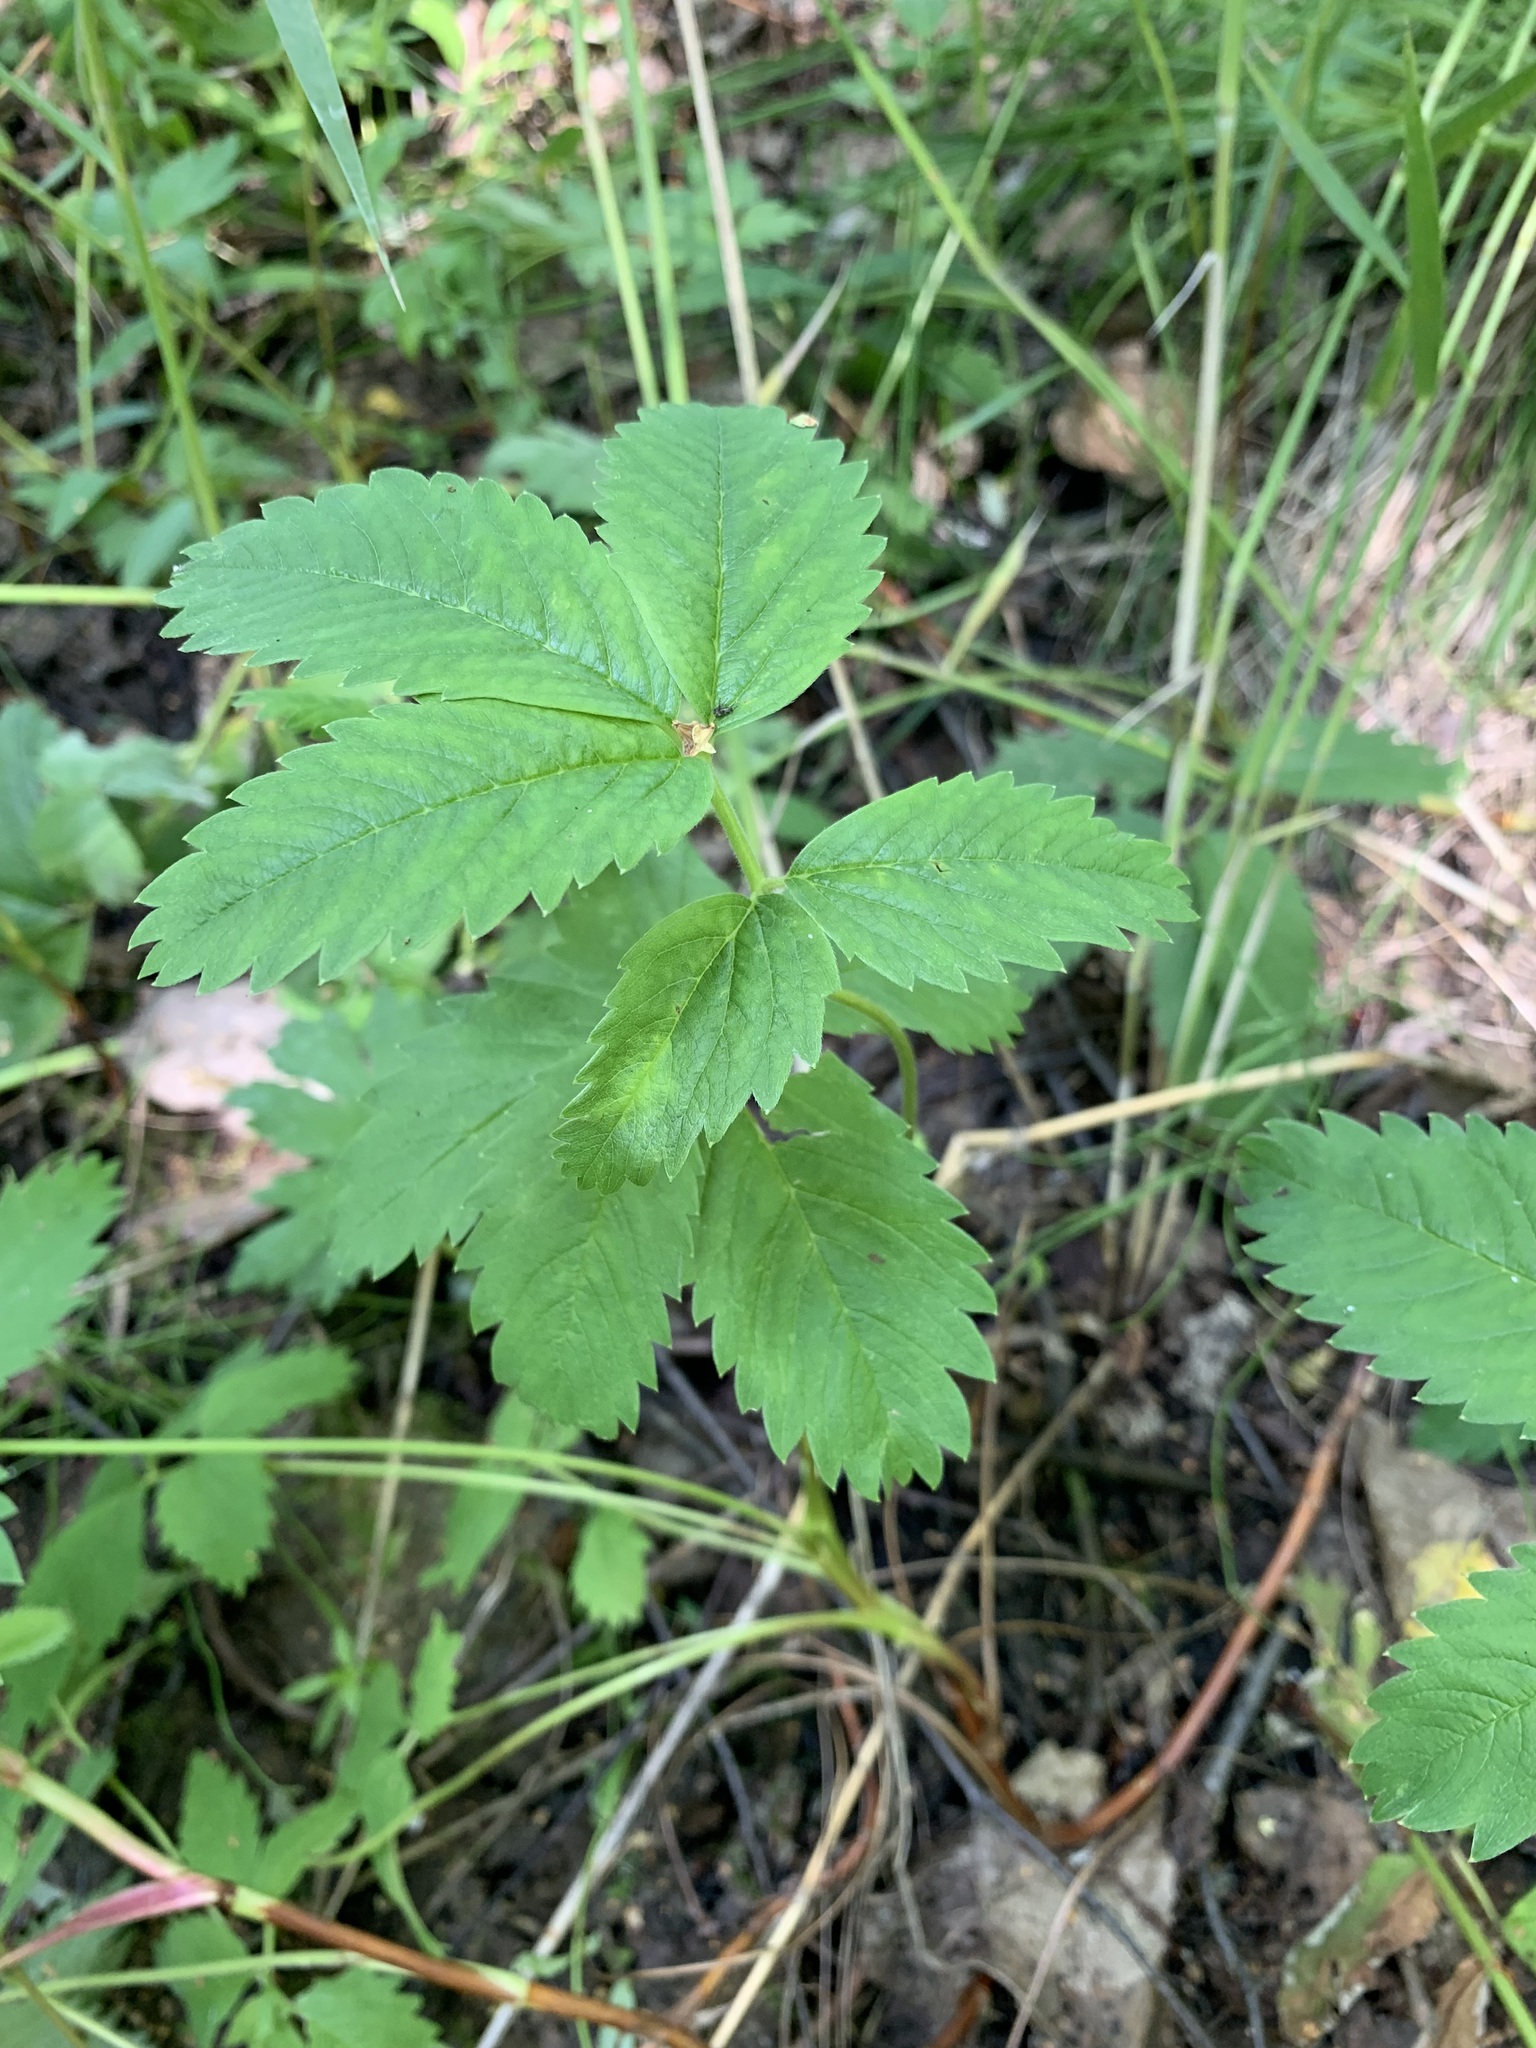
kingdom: Plantae
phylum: Tracheophyta
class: Magnoliopsida
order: Rosales
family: Rosaceae
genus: Comarum
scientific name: Comarum palustre
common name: Marsh cinquefoil
